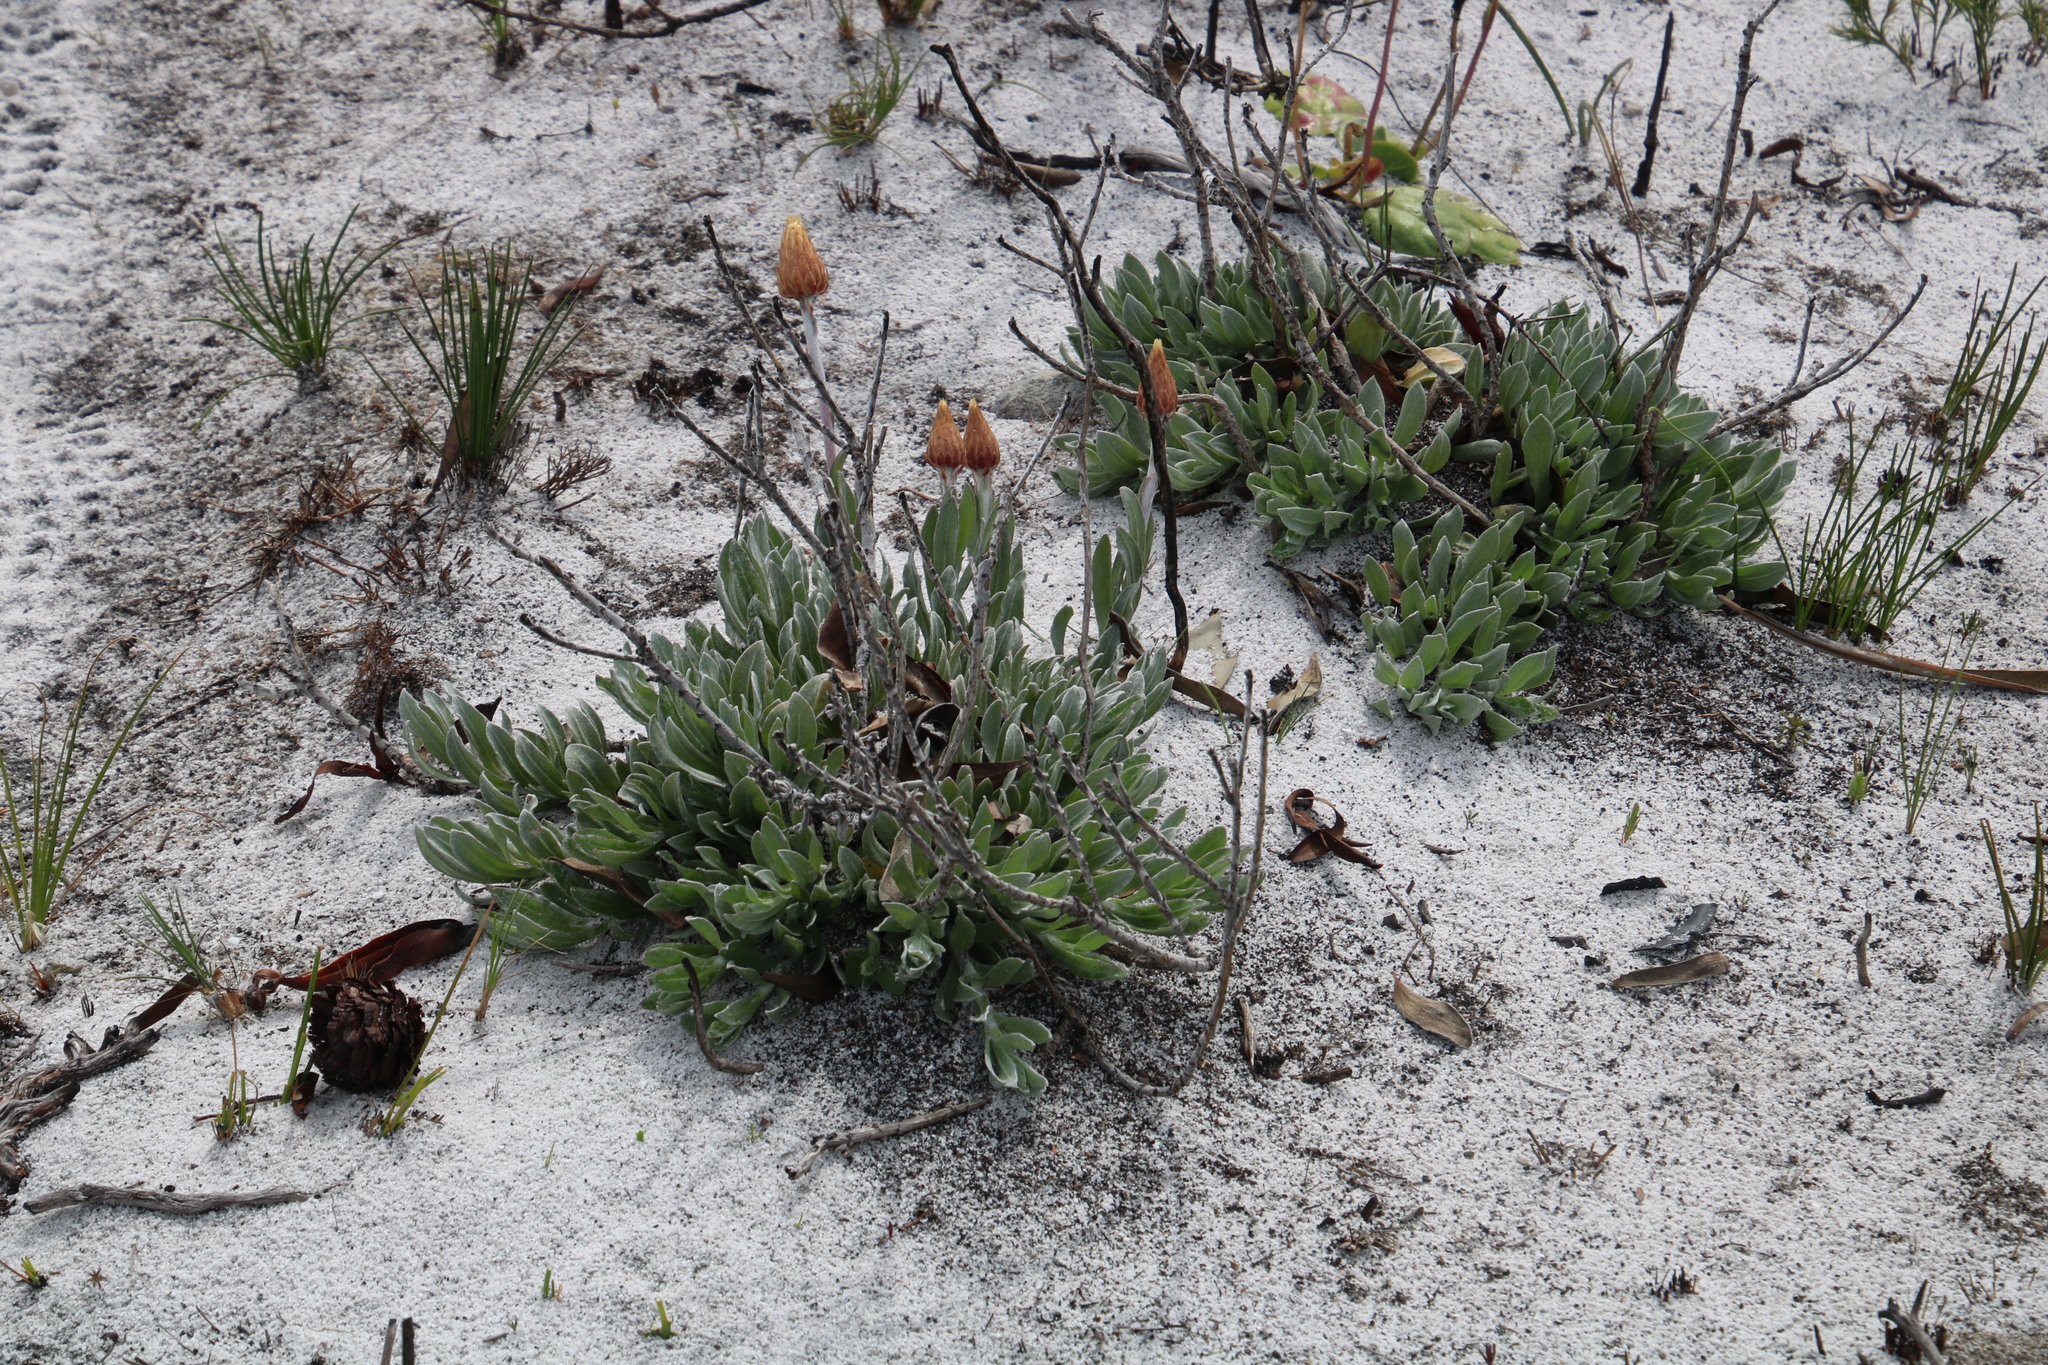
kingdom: Plantae
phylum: Tracheophyta
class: Magnoliopsida
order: Asterales
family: Asteraceae
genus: Syncarpha
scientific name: Syncarpha speciosissima
